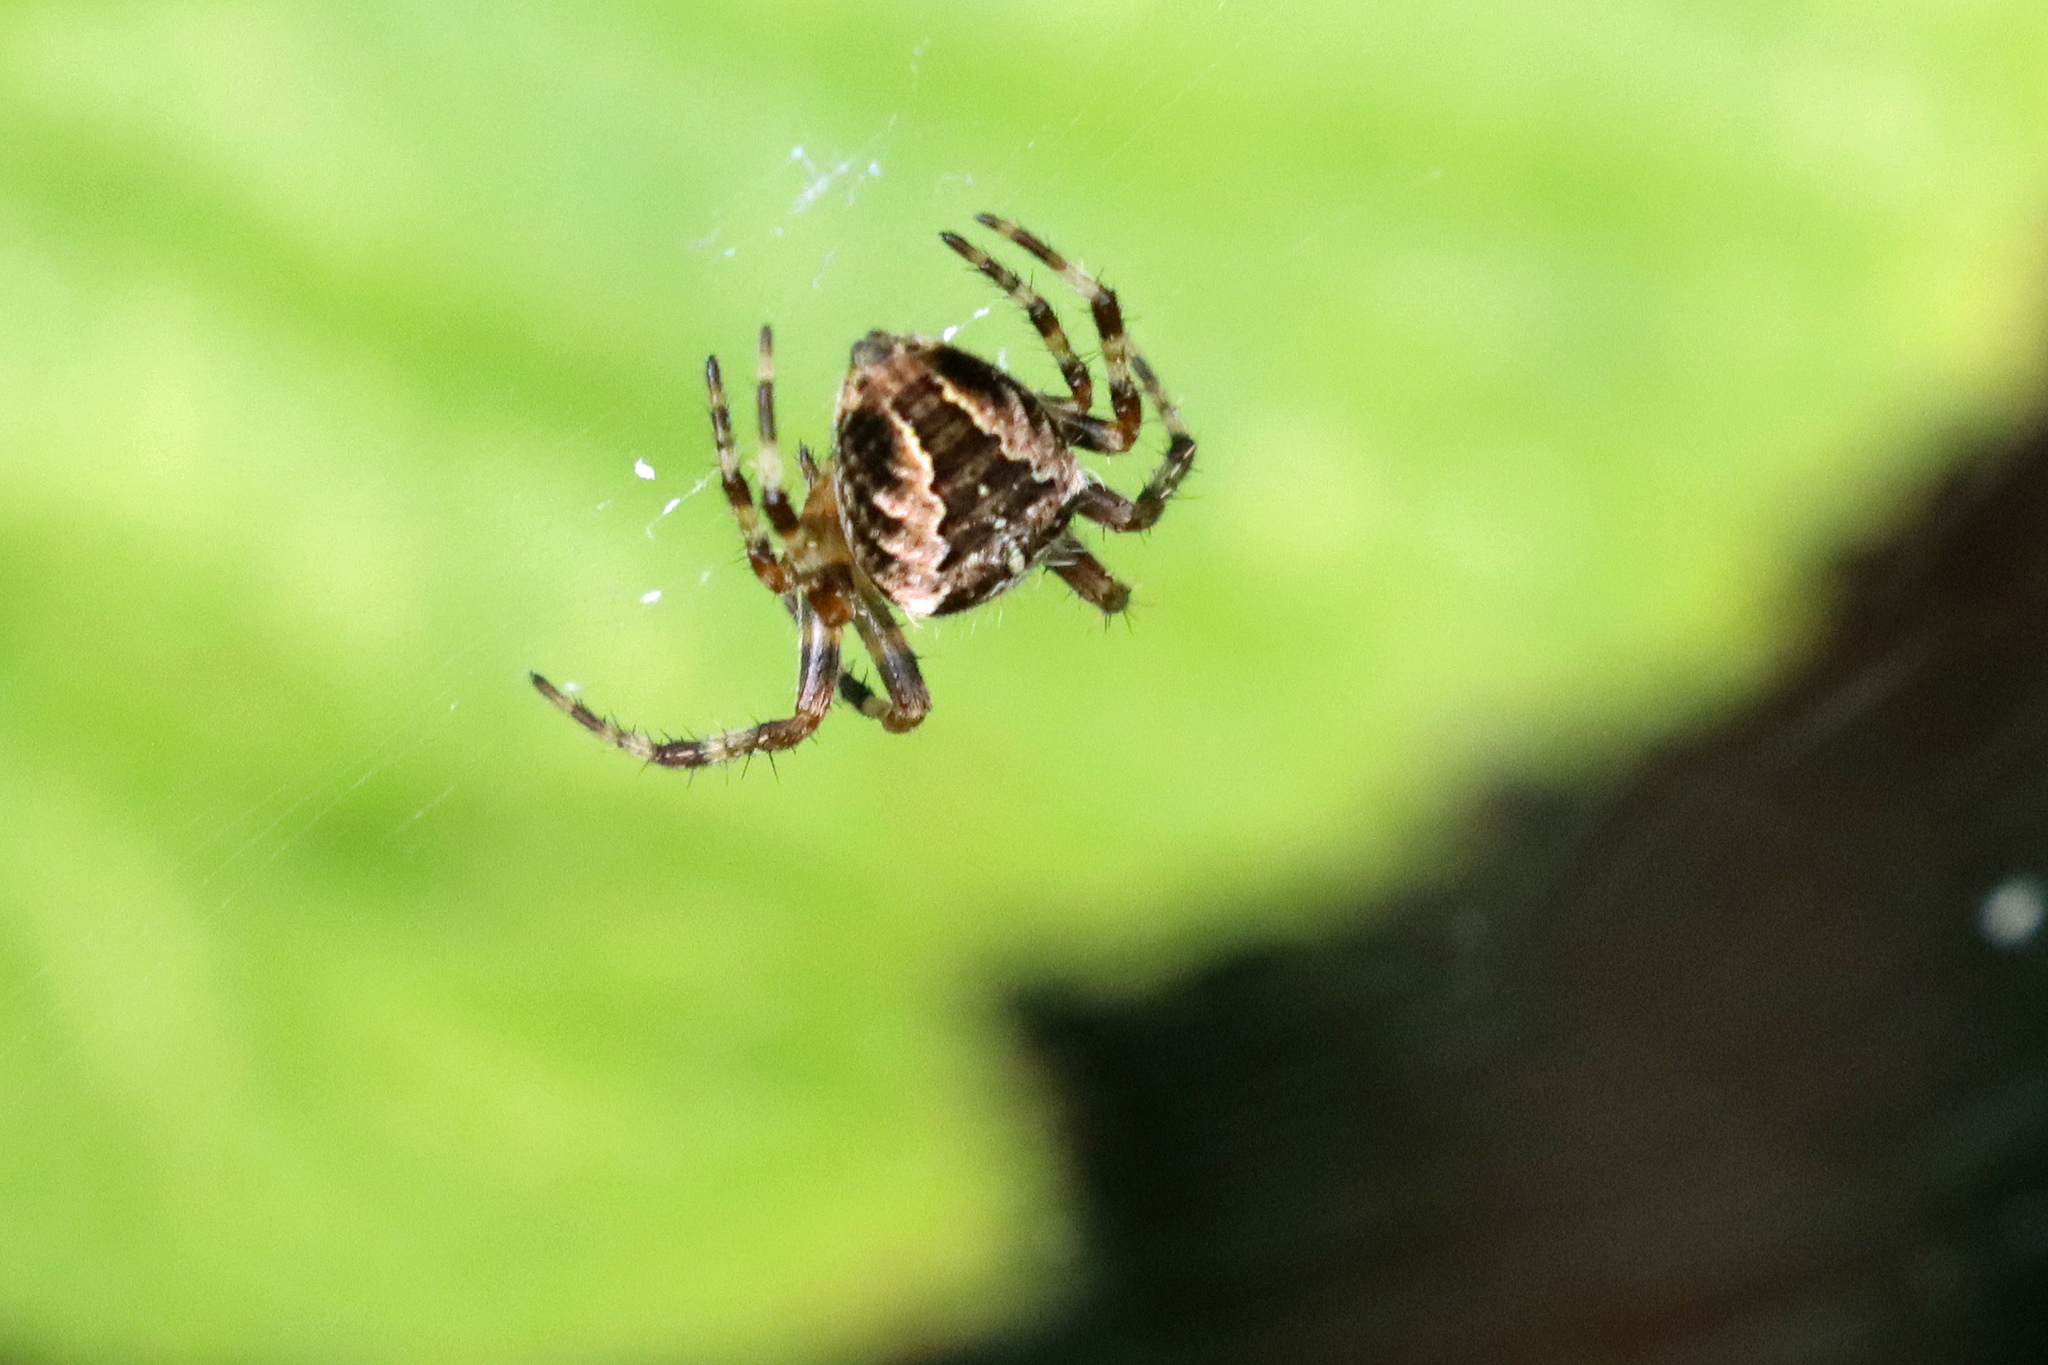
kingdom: Animalia
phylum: Arthropoda
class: Arachnida
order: Araneae
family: Araneidae
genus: Araneus
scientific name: Araneus diadematus
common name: Cross orbweaver
